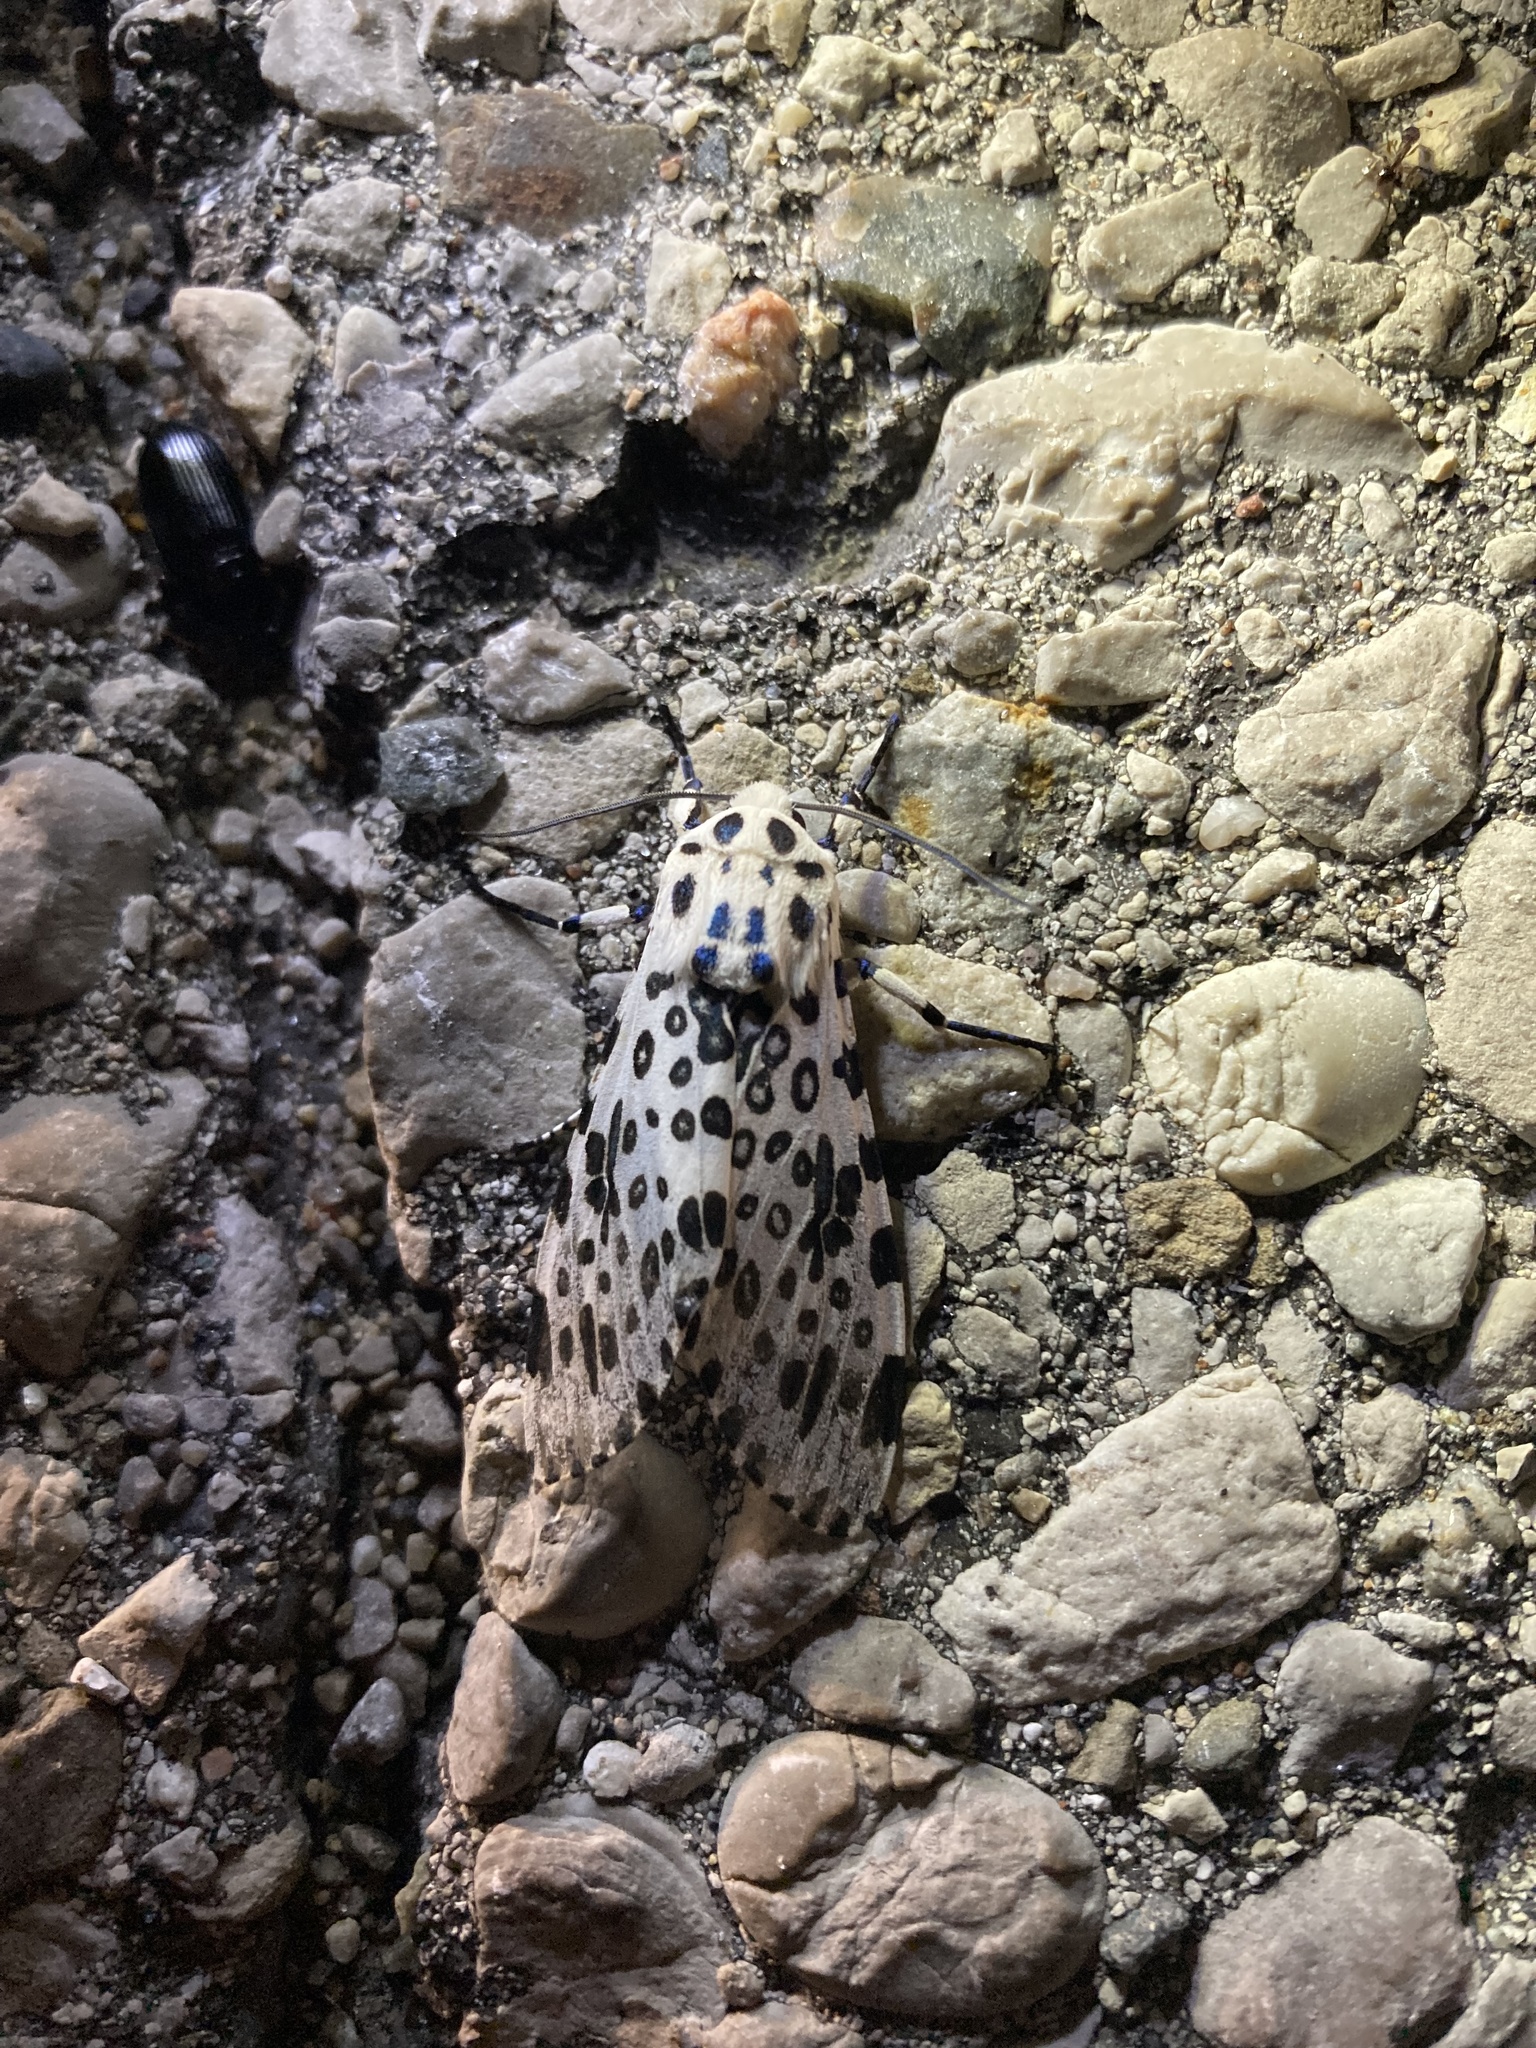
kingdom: Animalia
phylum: Arthropoda
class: Insecta
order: Lepidoptera
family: Erebidae
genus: Hypercompe
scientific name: Hypercompe scribonia
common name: Giant leopard moth
